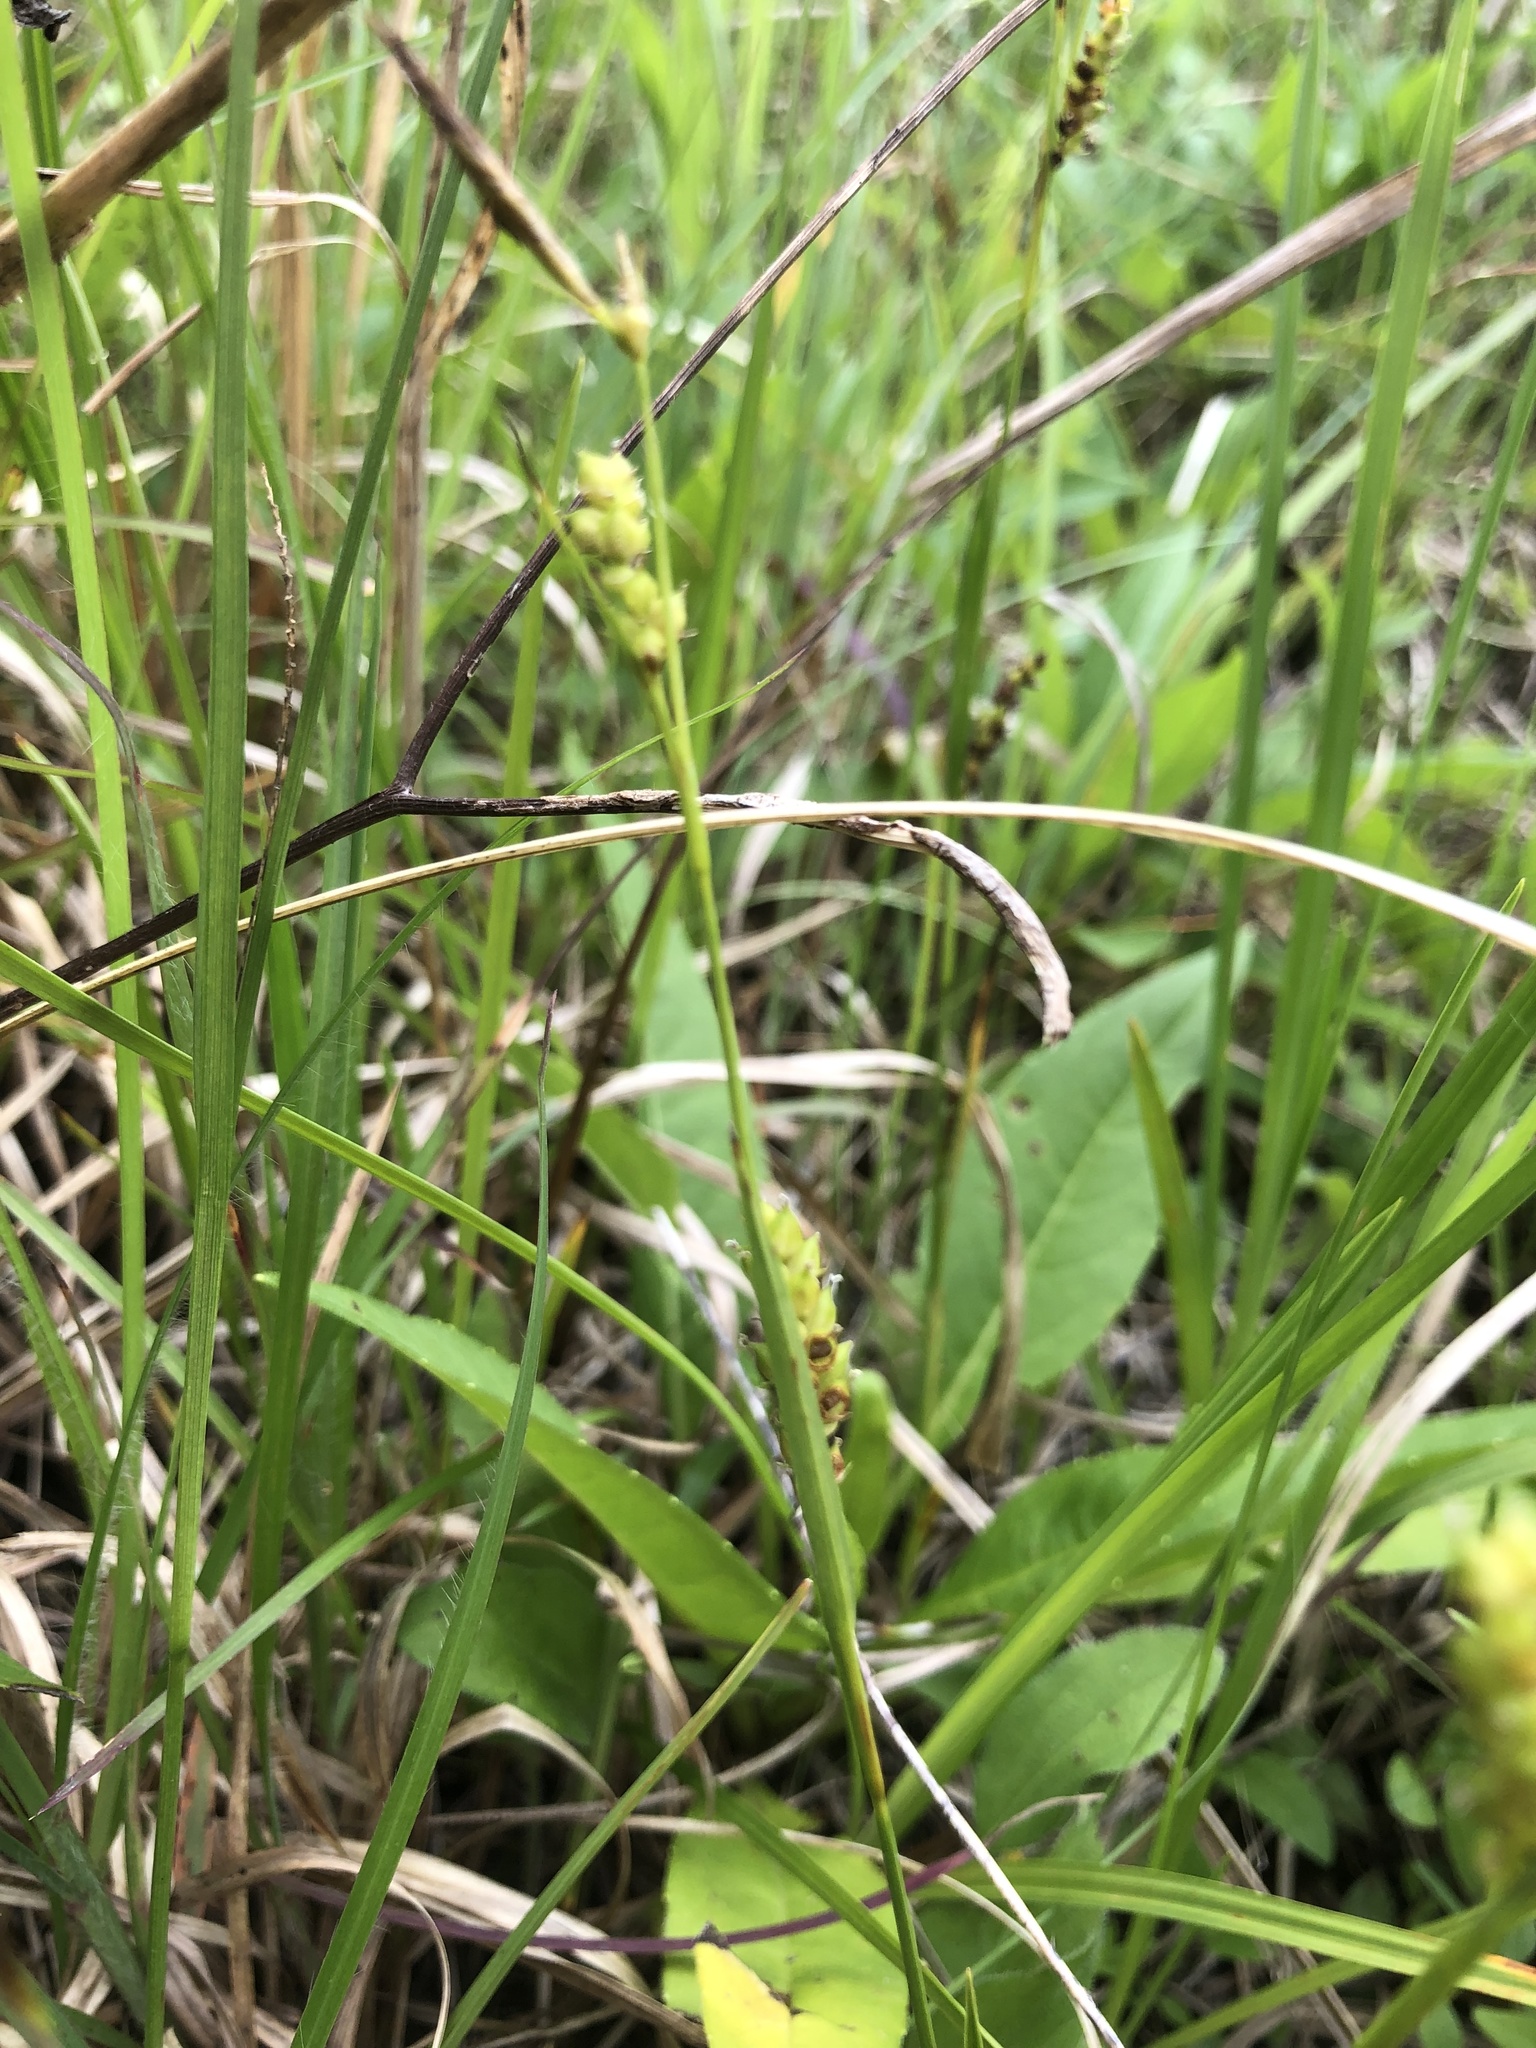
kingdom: Plantae
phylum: Tracheophyta
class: Liliopsida
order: Poales
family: Cyperaceae
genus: Carex
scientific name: Carex microdonta
